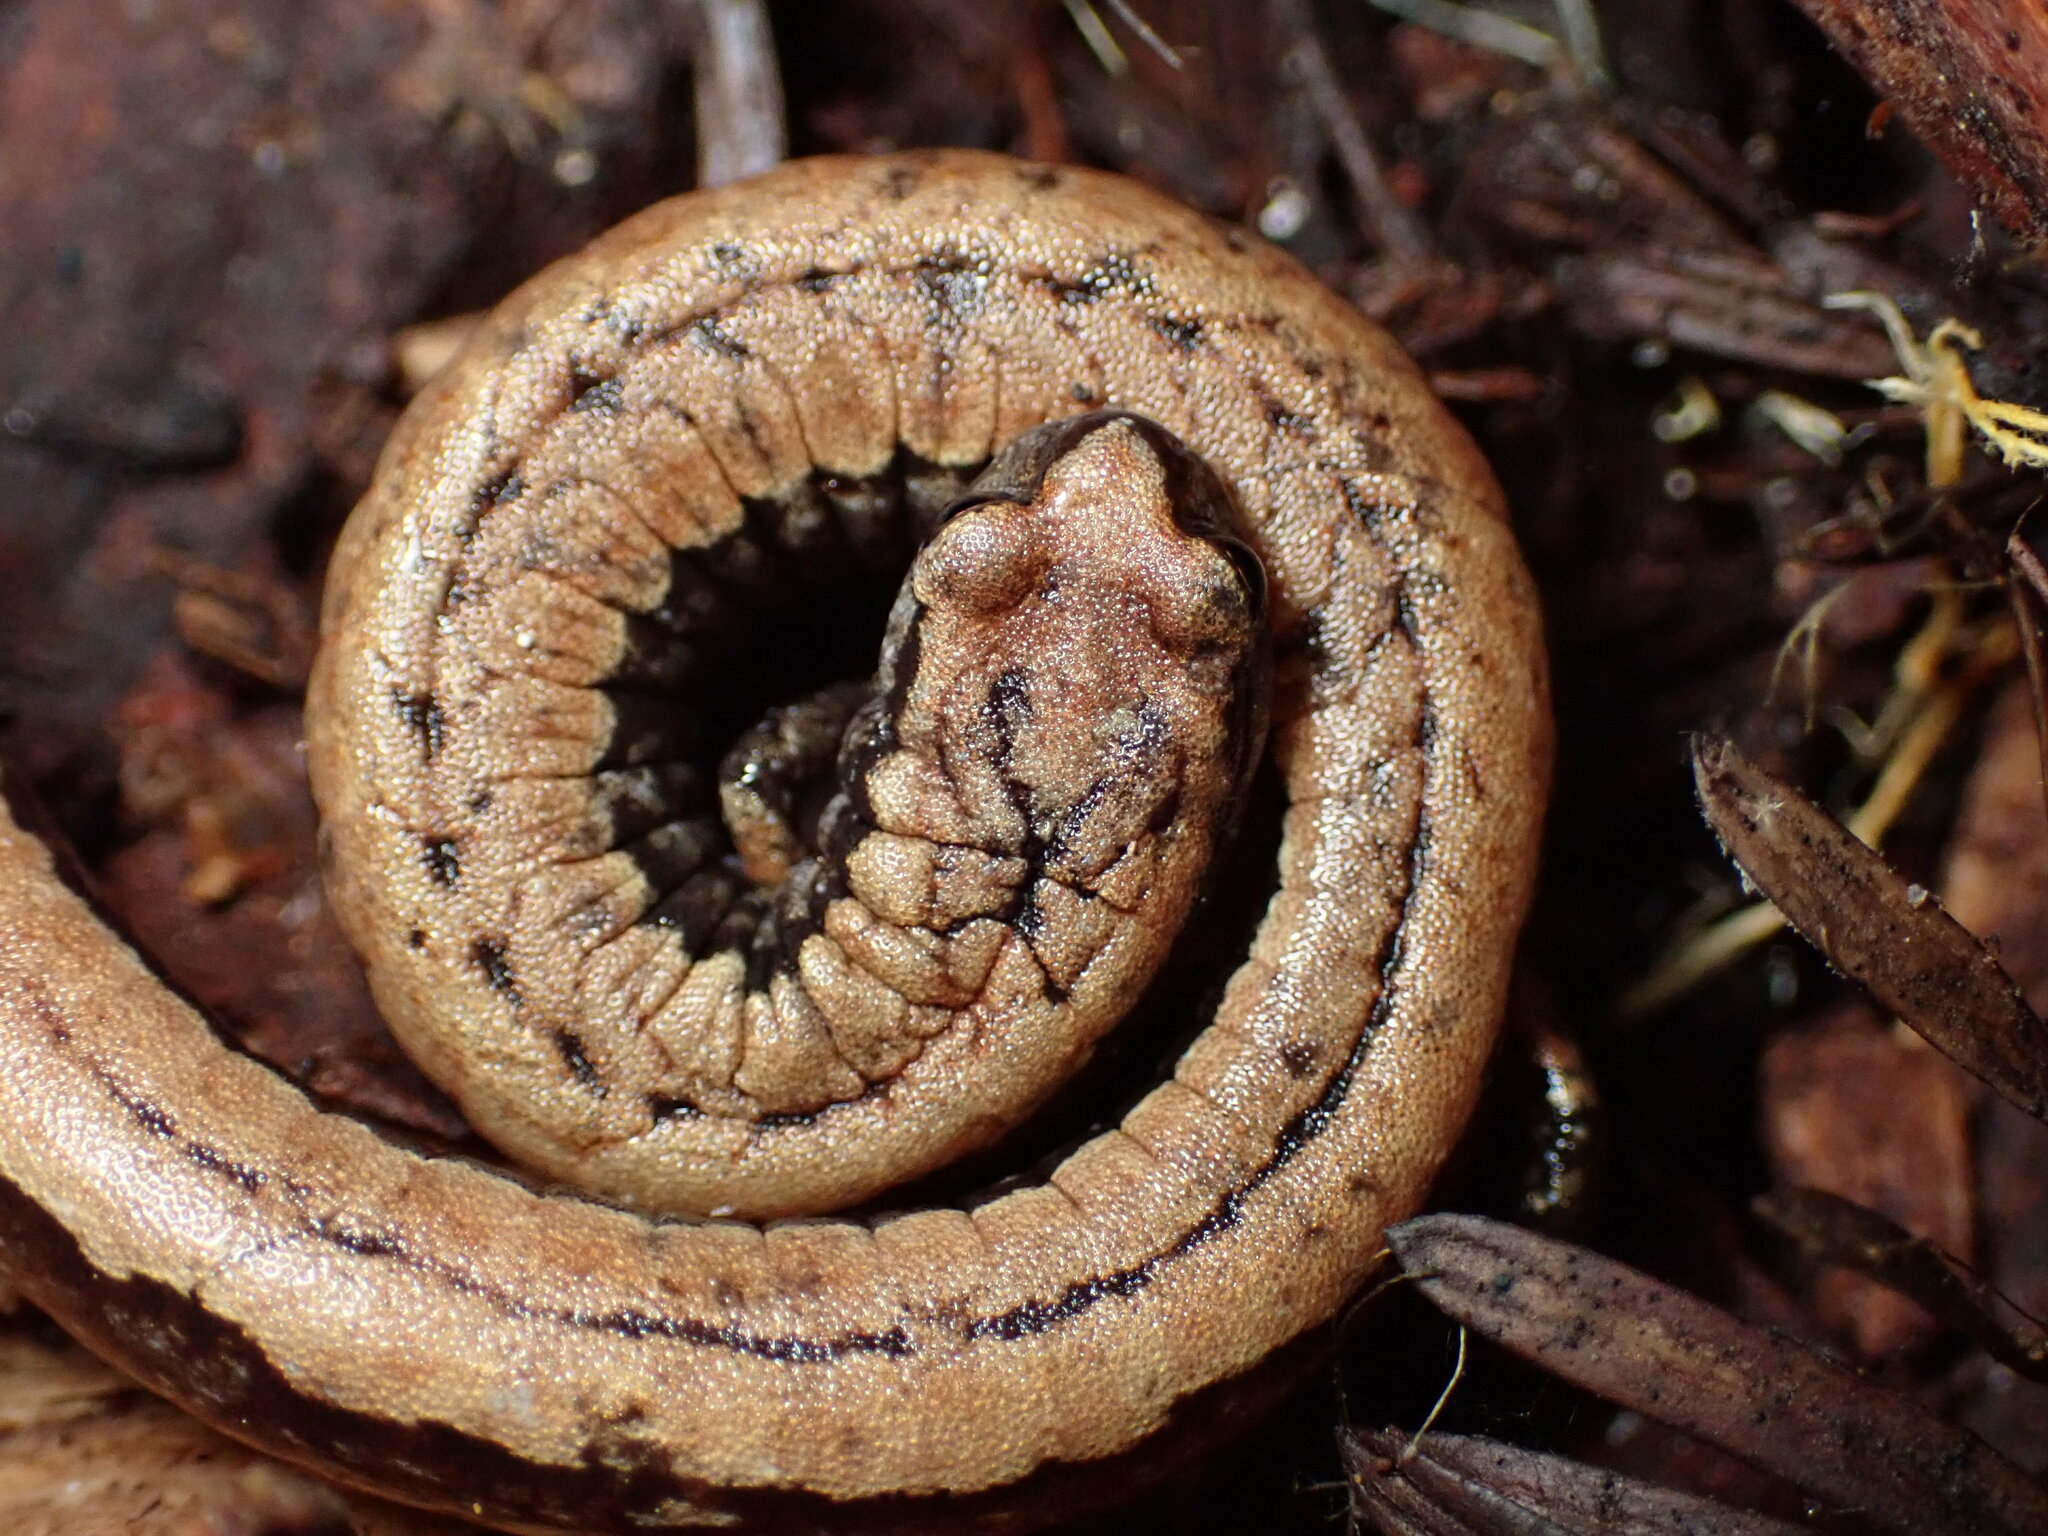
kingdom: Animalia
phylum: Chordata
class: Amphibia
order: Caudata
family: Plethodontidae
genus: Batrachoseps
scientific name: Batrachoseps attenuatus
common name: California slender salamander
